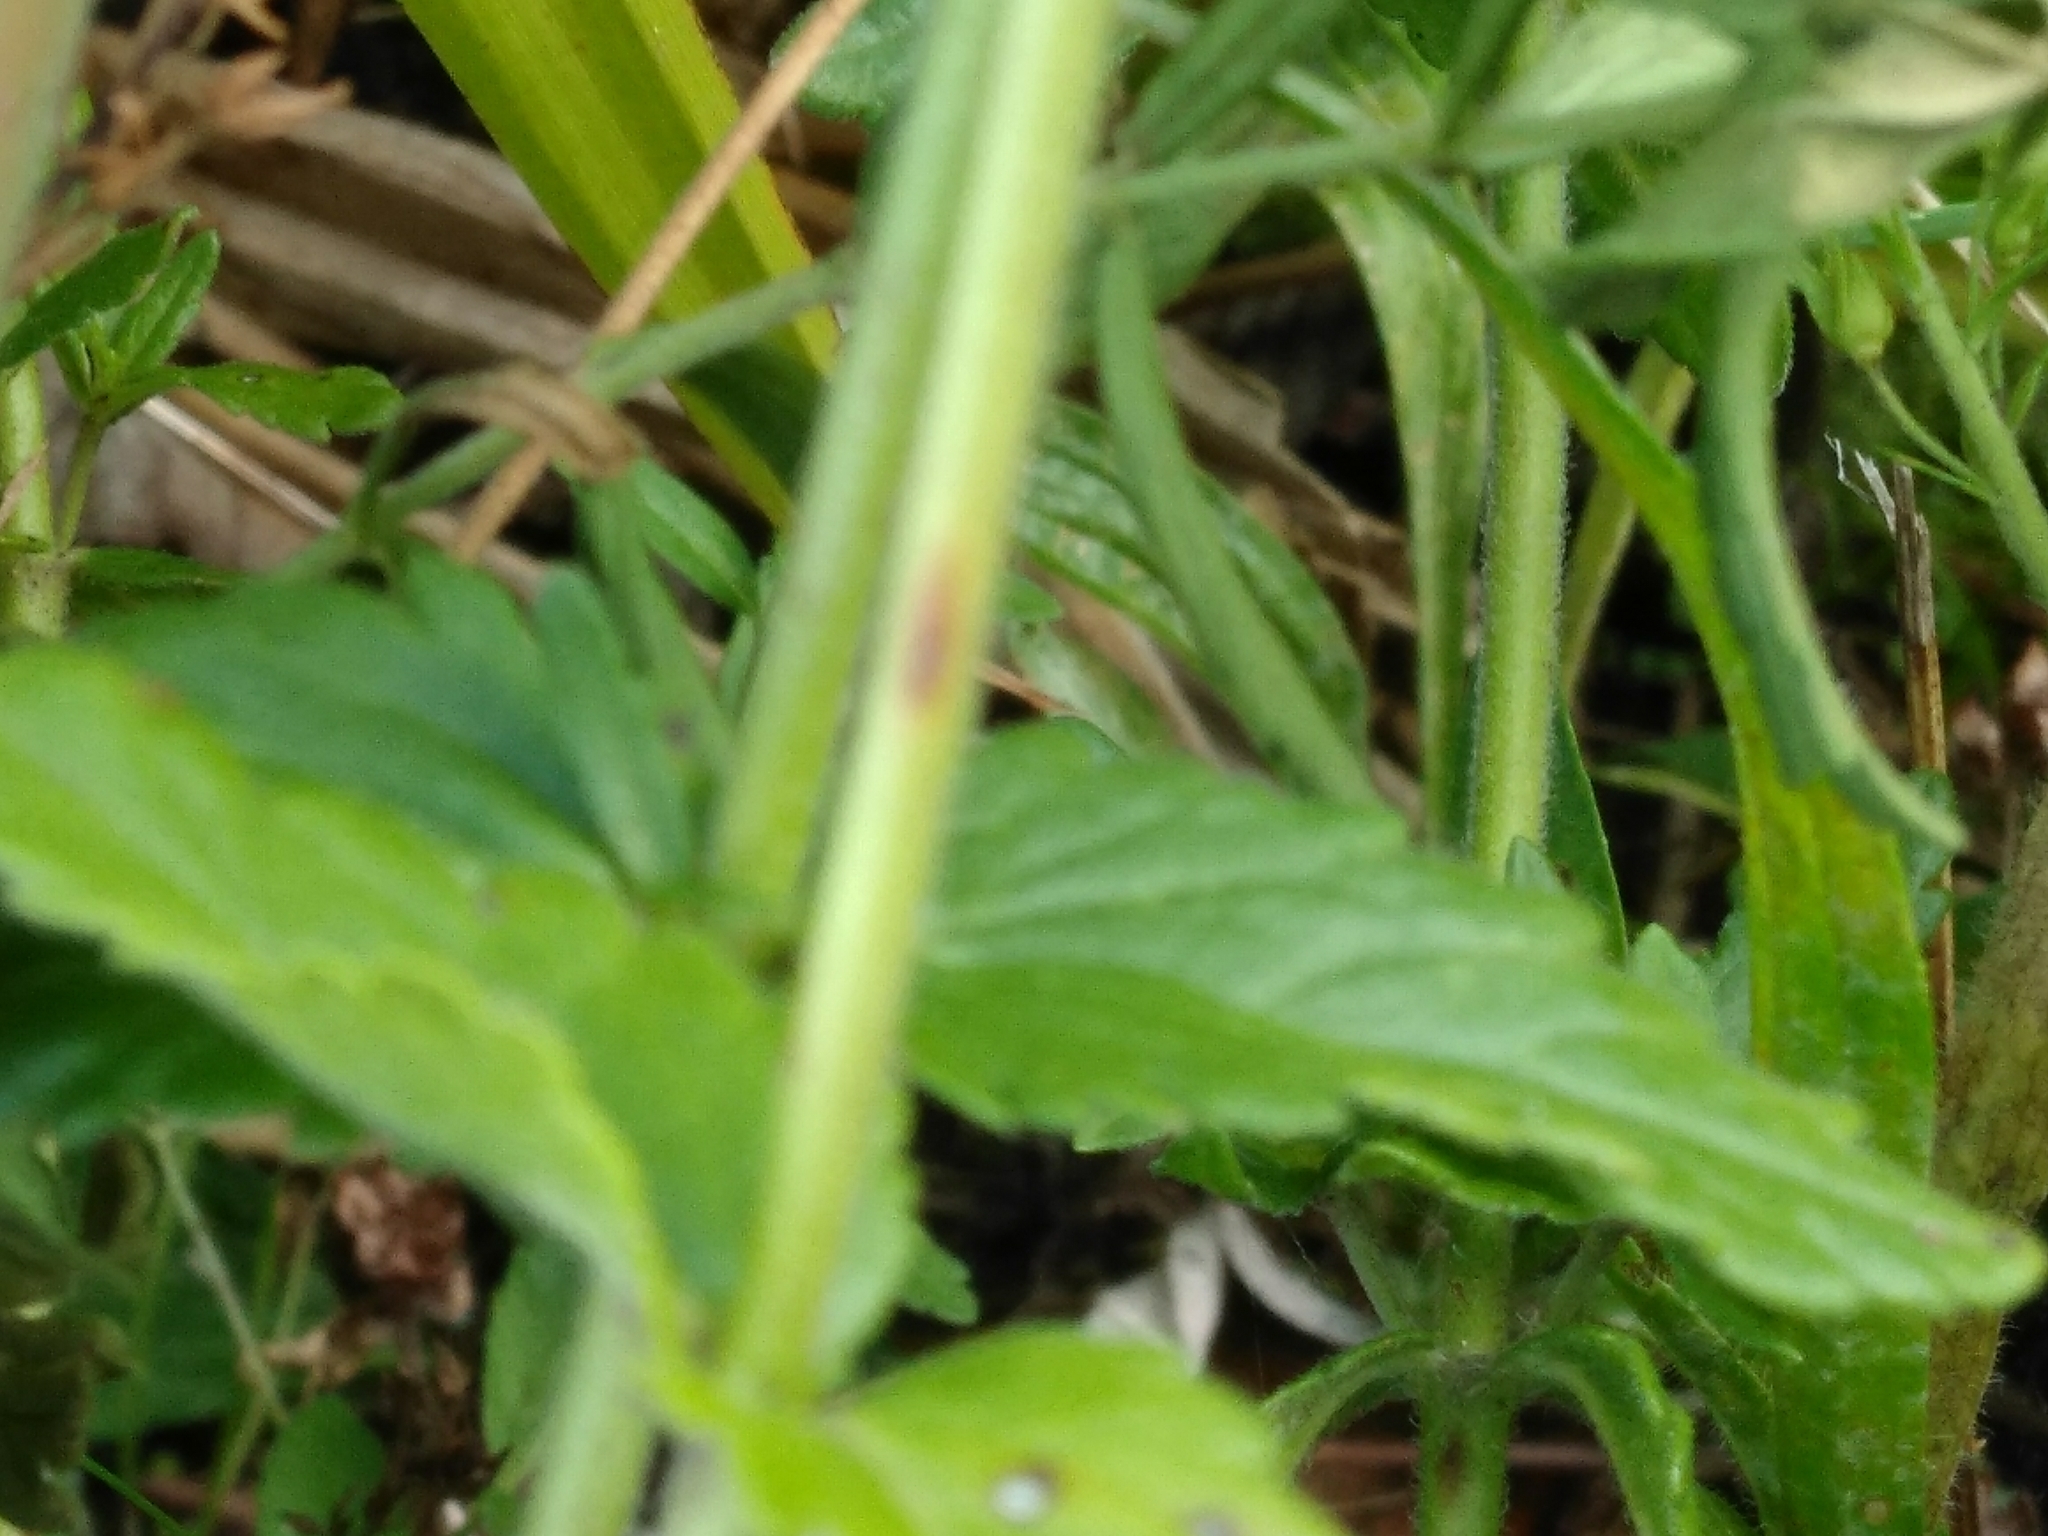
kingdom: Plantae
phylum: Tracheophyta
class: Magnoliopsida
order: Lamiales
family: Plantaginaceae
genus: Veronica
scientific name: Veronica teucrium
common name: Large speedwell
